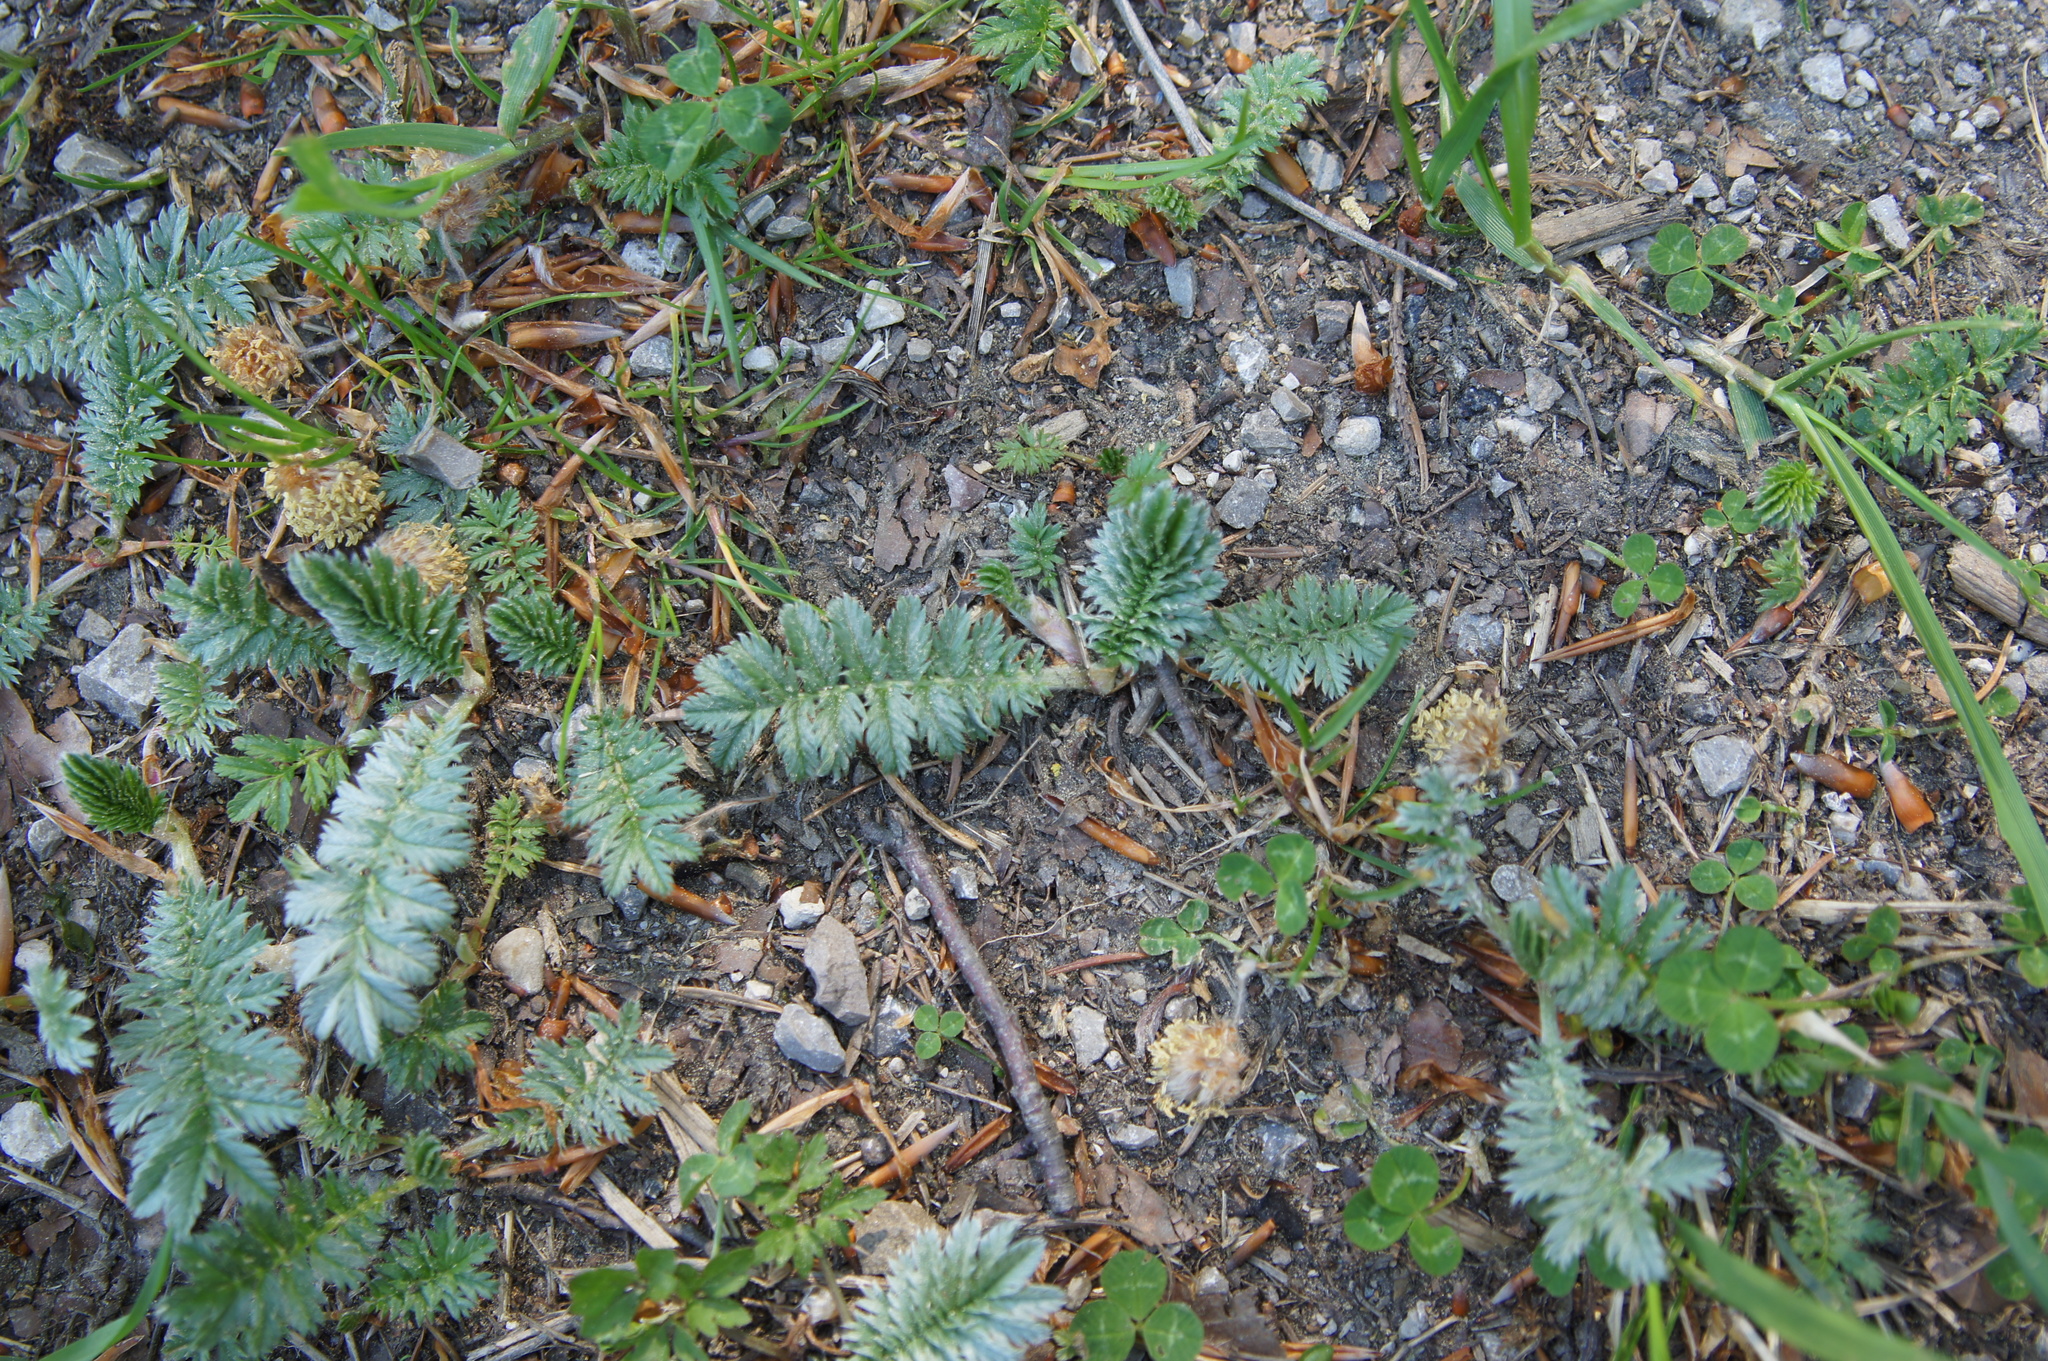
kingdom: Plantae
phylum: Tracheophyta
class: Magnoliopsida
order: Rosales
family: Rosaceae
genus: Argentina
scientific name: Argentina anserina
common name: Common silverweed
